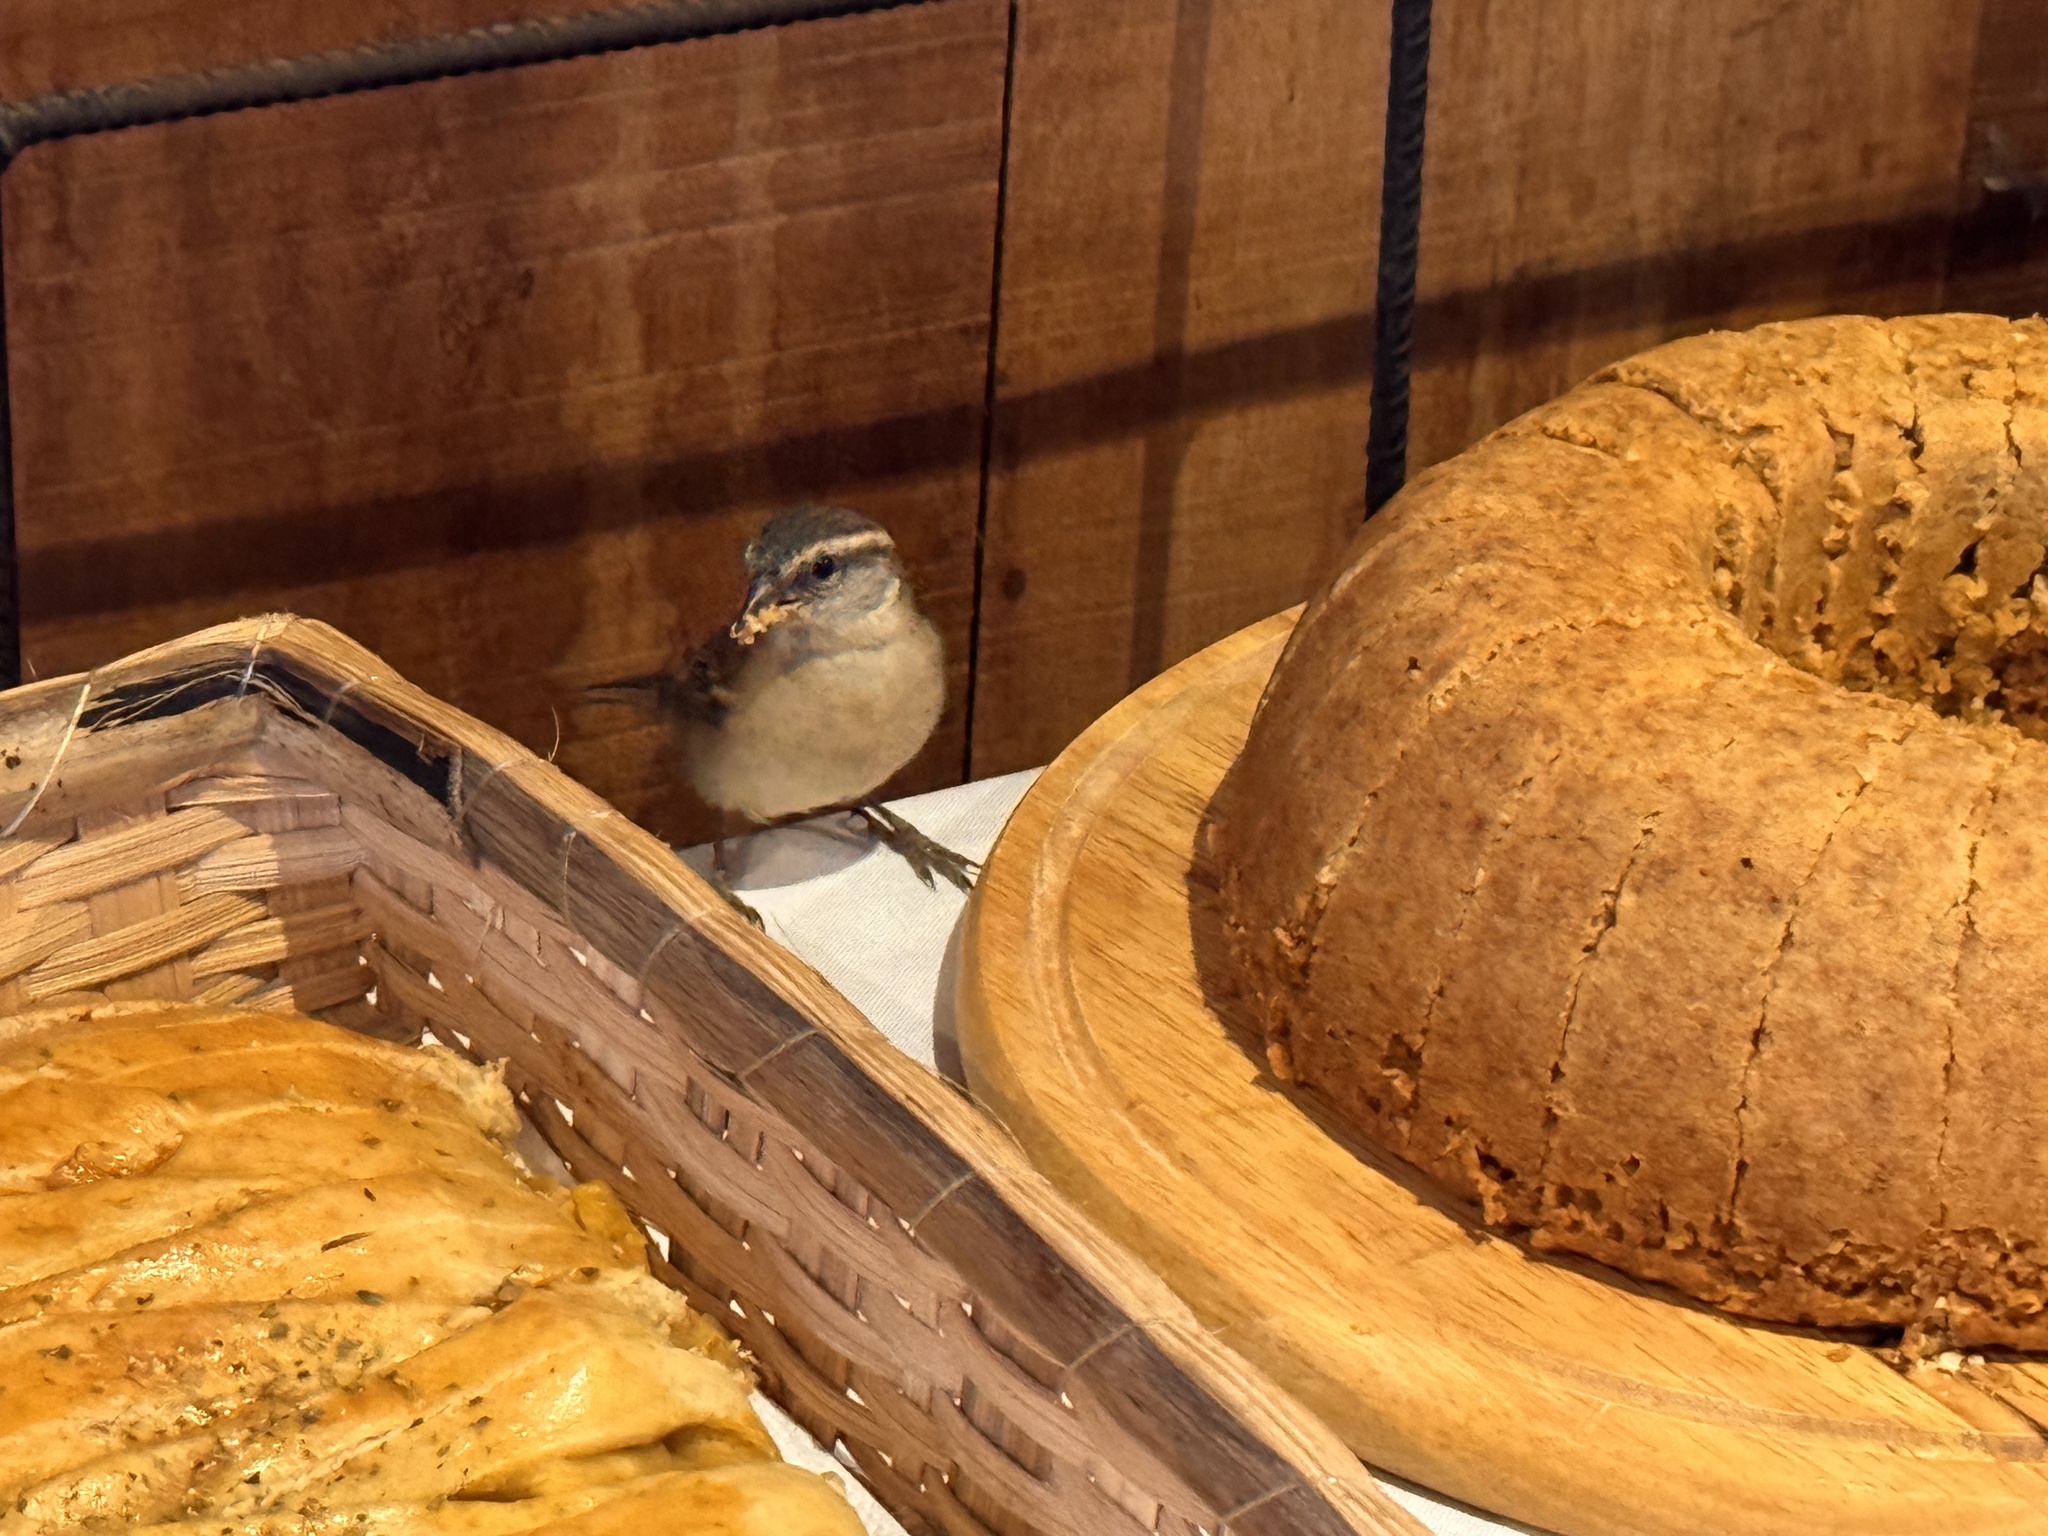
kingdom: Animalia
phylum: Chordata
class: Aves
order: Passeriformes
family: Passeridae
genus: Passer
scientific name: Passer iagoensis
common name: Iago sparrow
